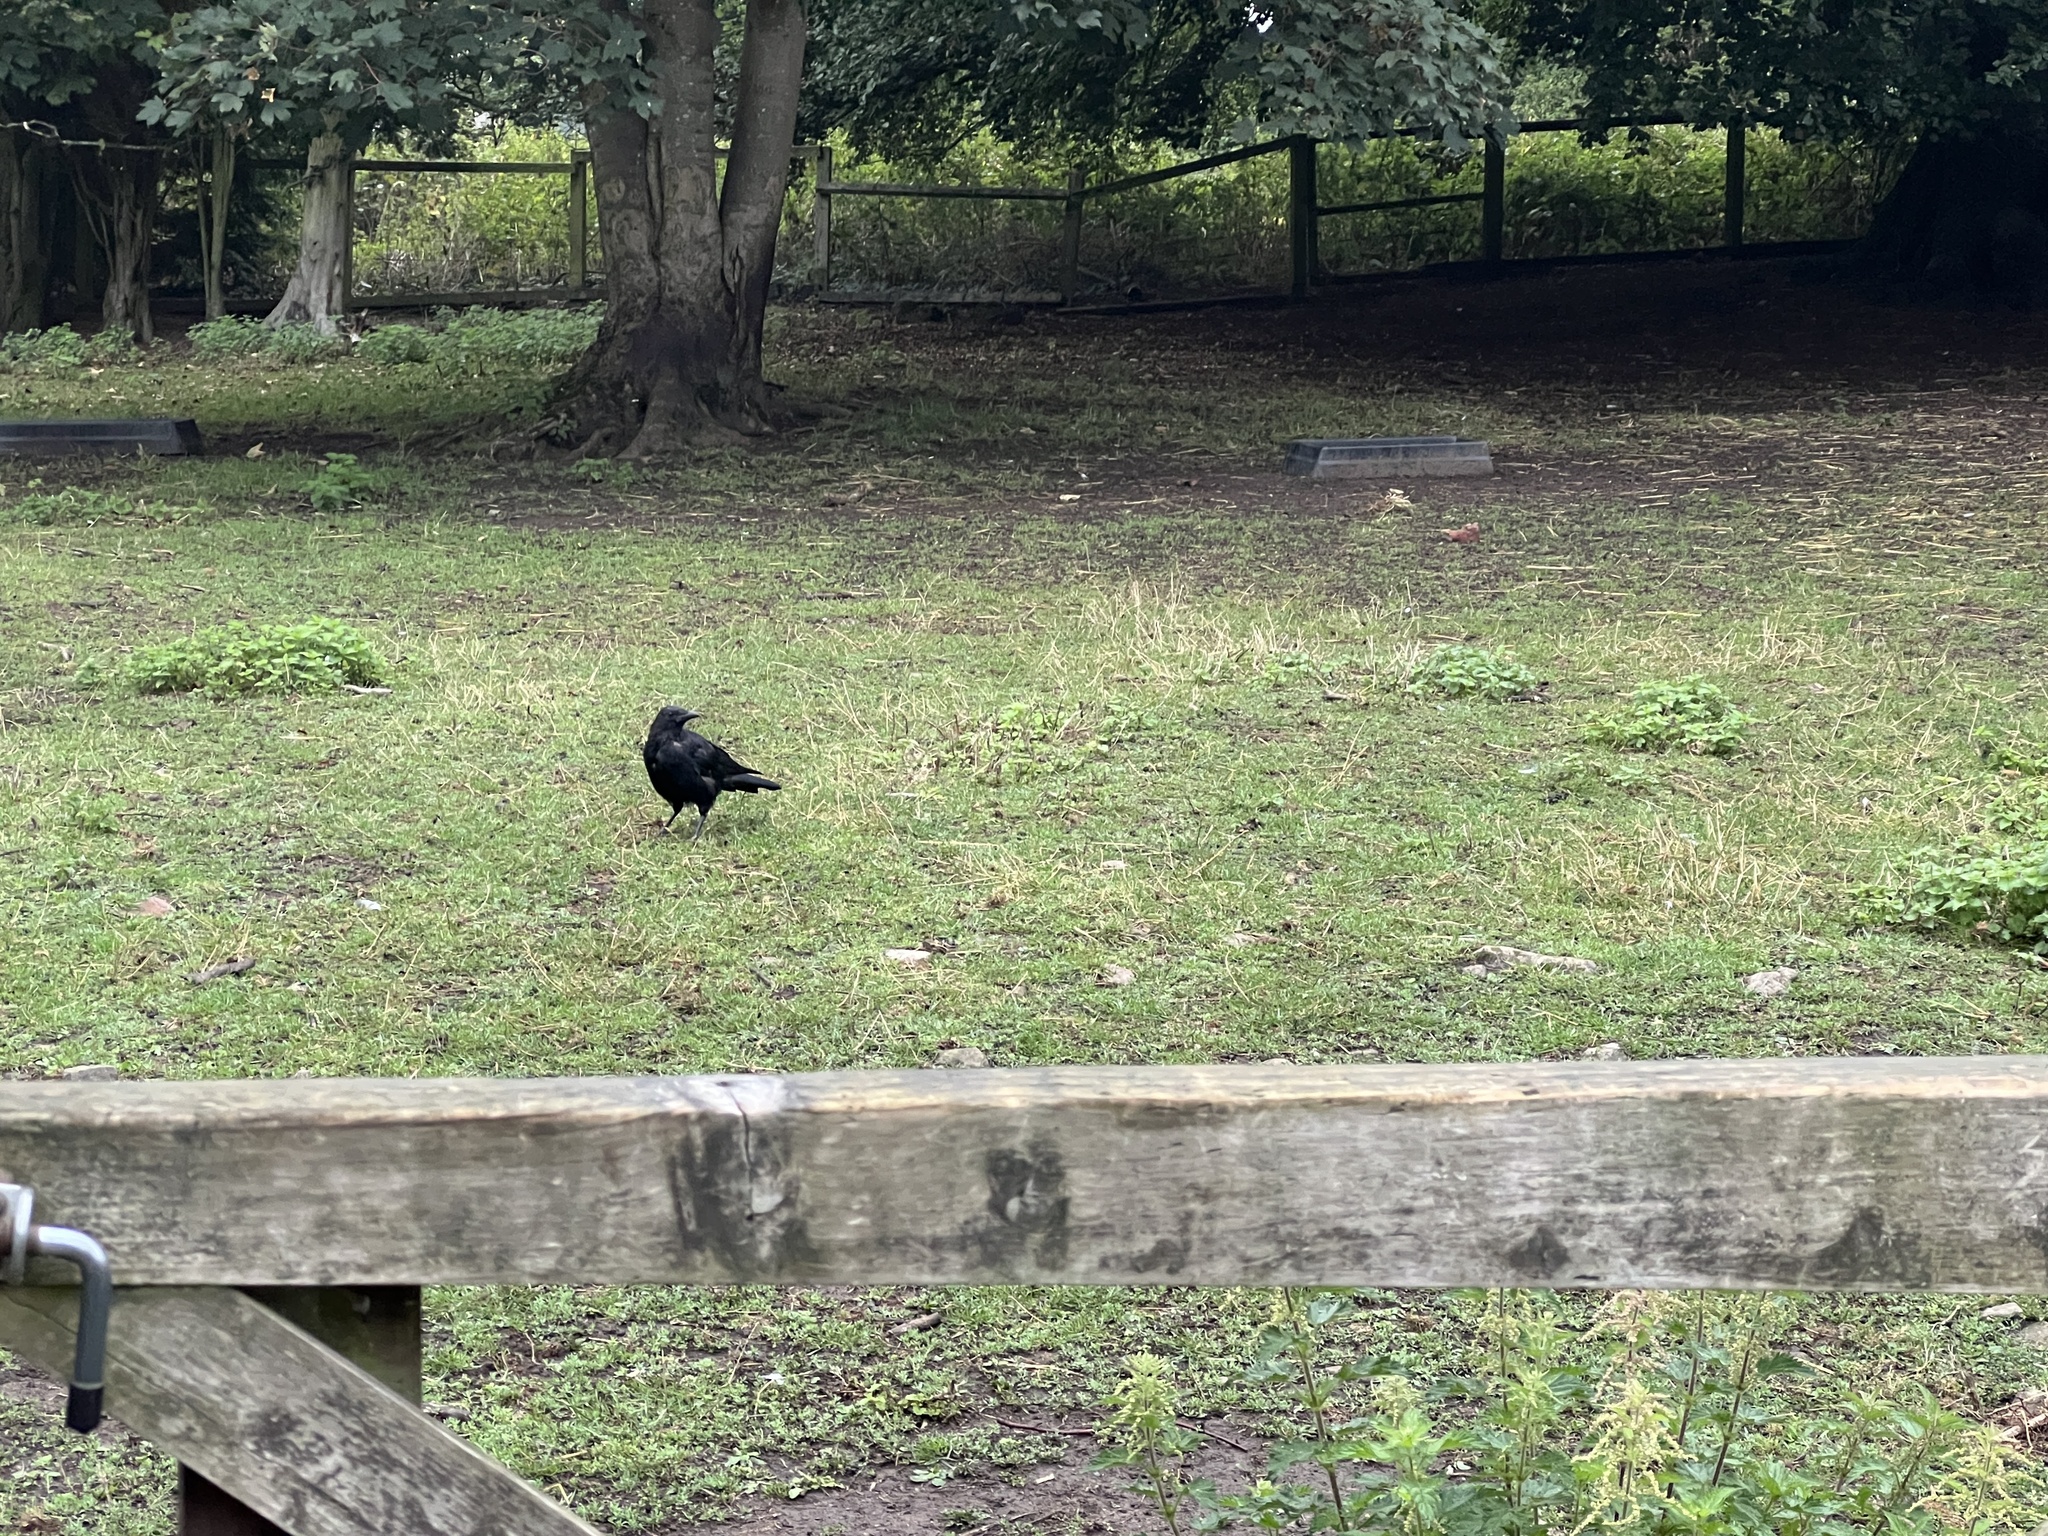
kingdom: Animalia
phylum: Chordata
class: Aves
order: Passeriformes
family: Corvidae
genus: Corvus
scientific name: Corvus corone
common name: Carrion crow
